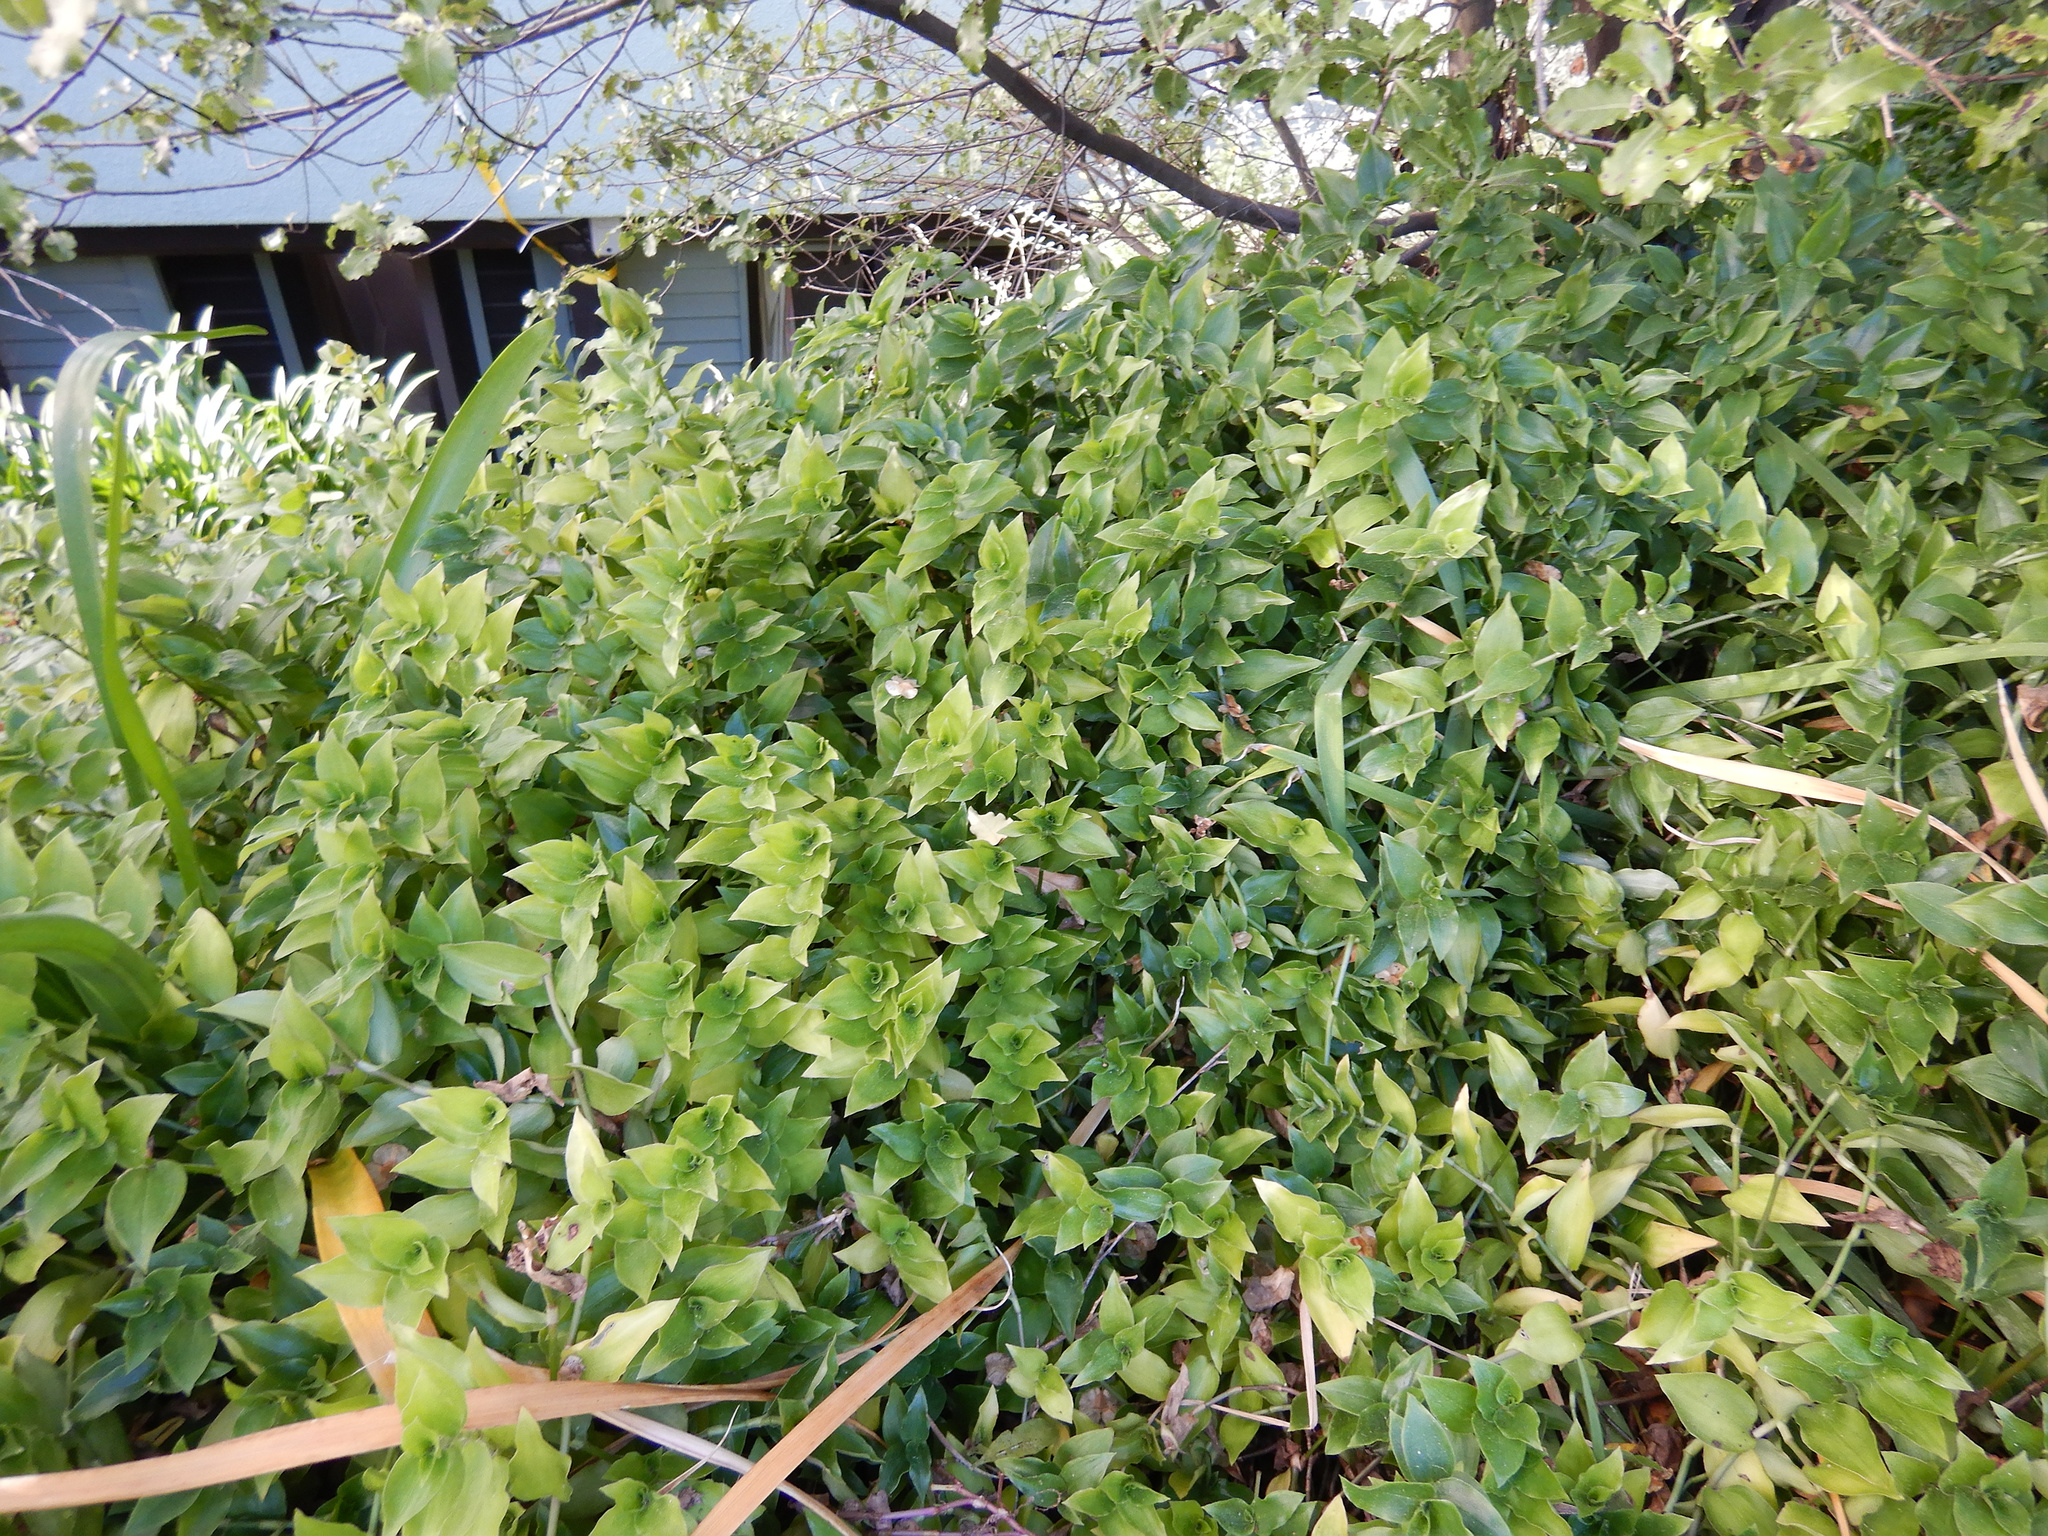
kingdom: Plantae
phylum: Tracheophyta
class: Liliopsida
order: Commelinales
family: Commelinaceae
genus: Tradescantia
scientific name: Tradescantia fluminensis
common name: Wandering-jew
